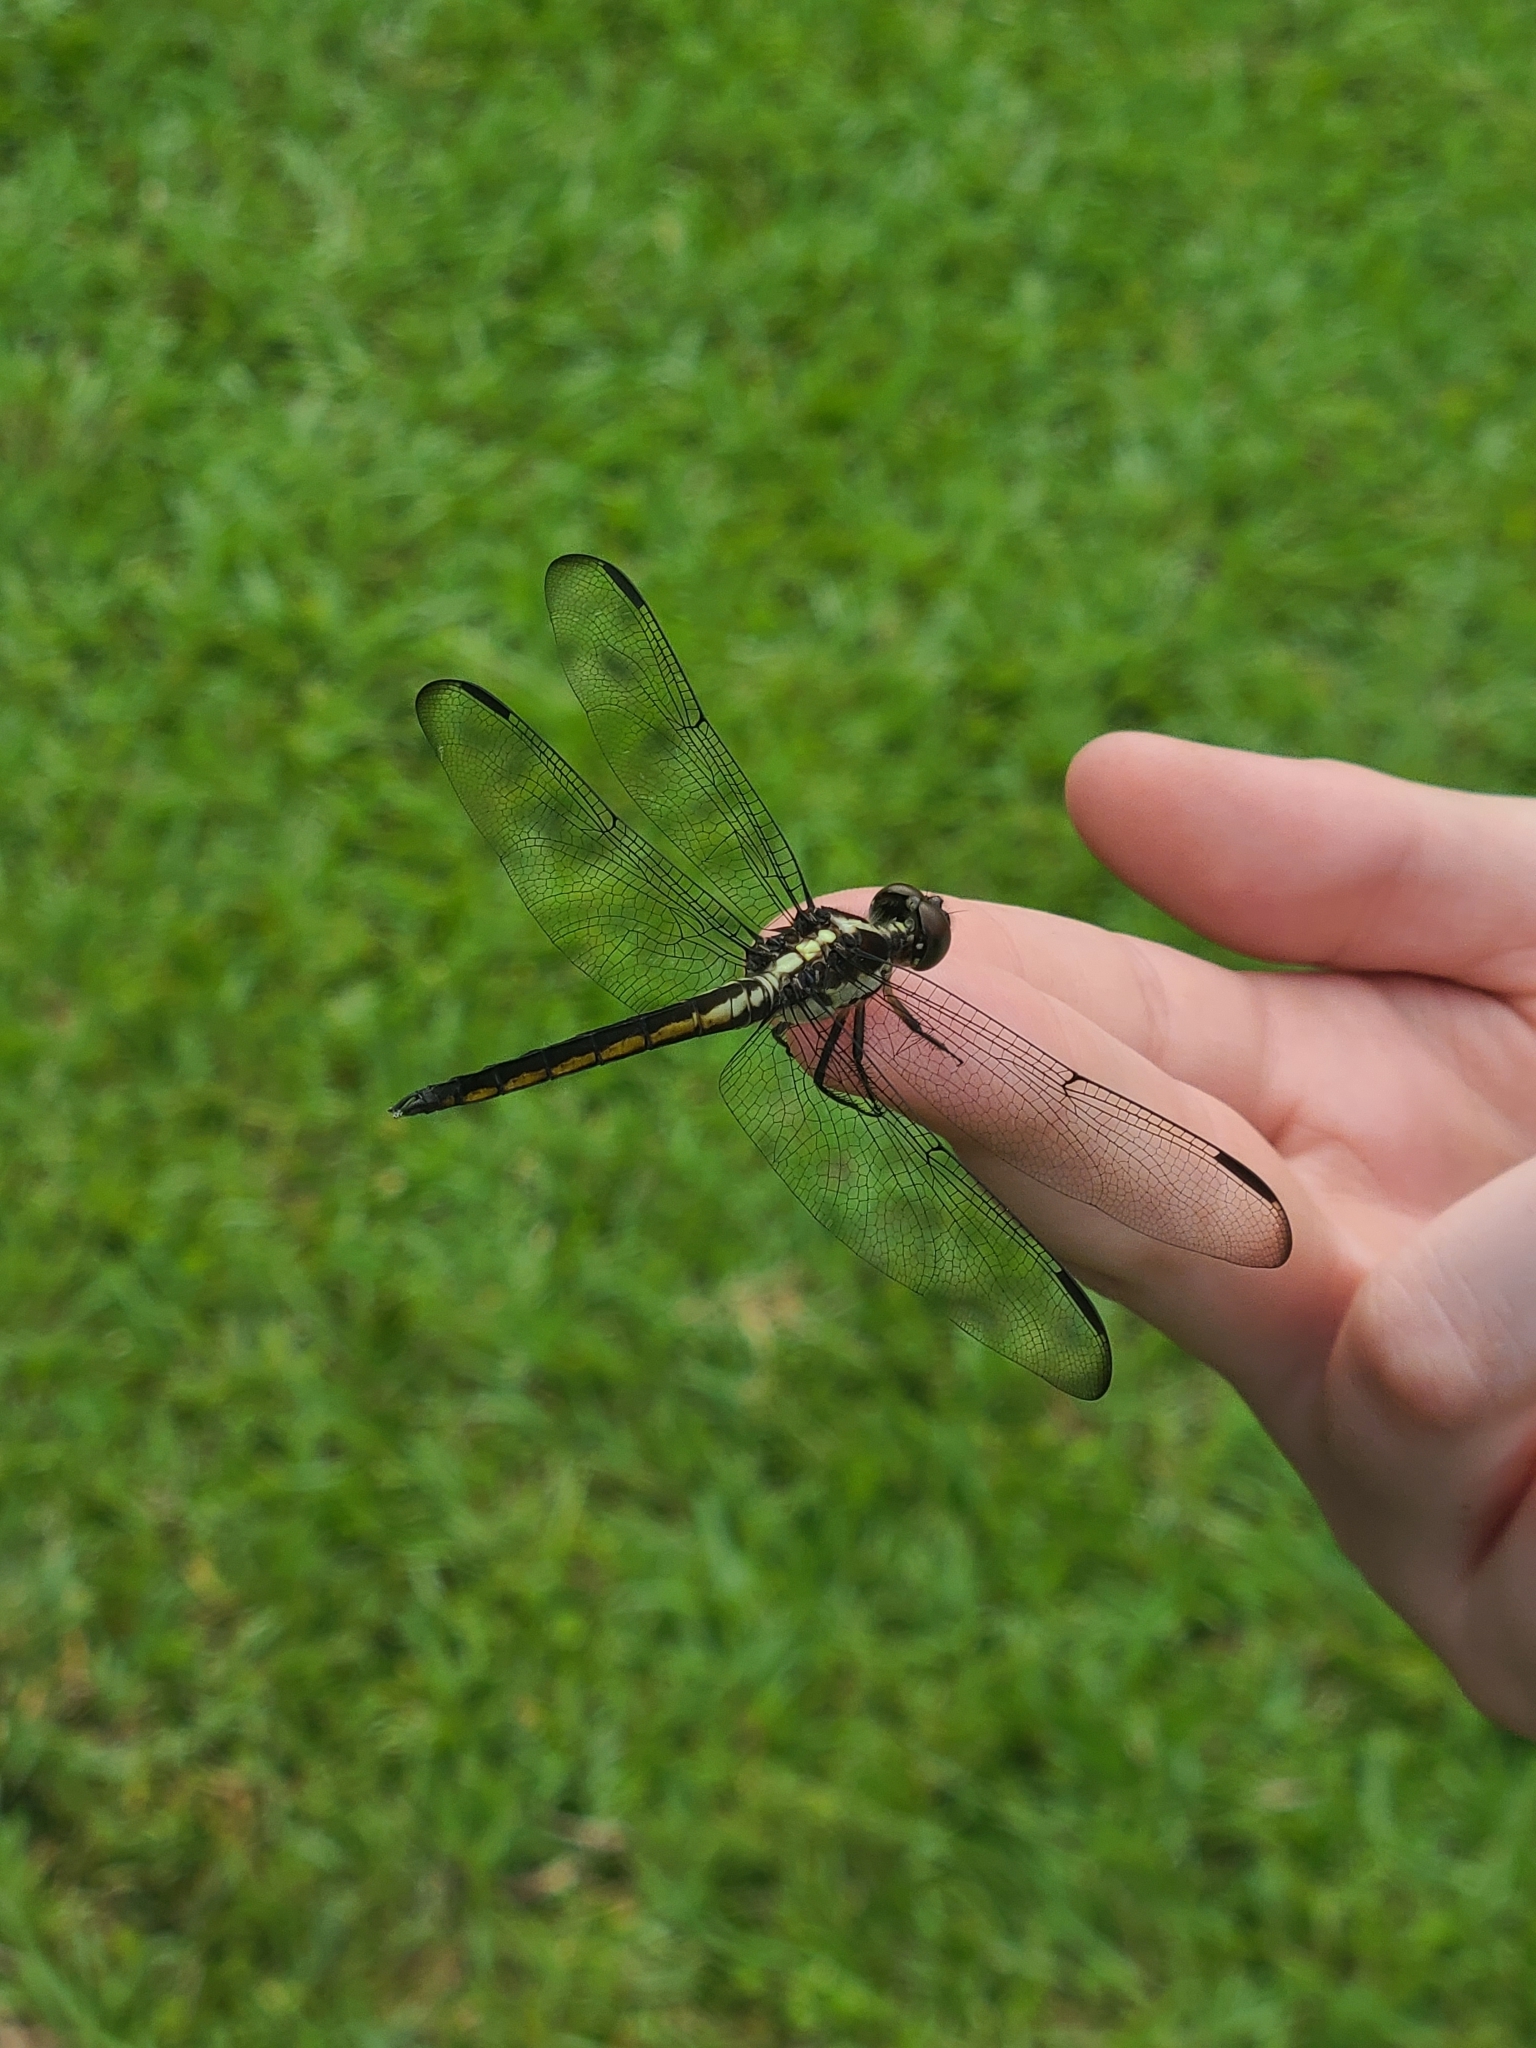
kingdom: Animalia
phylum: Arthropoda
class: Insecta
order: Odonata
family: Libellulidae
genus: Libellula
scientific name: Libellula incesta
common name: Slaty skimmer
